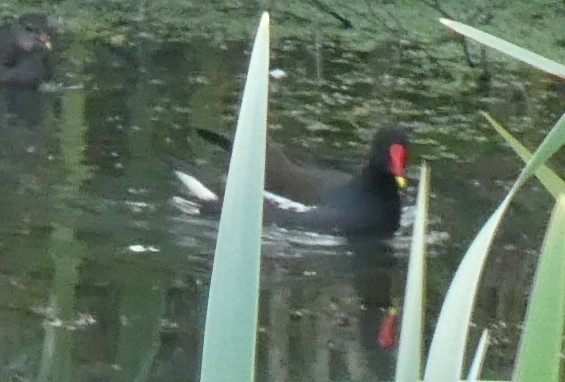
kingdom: Animalia
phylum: Chordata
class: Aves
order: Gruiformes
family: Rallidae
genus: Gallinula
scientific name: Gallinula chloropus
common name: Common moorhen
